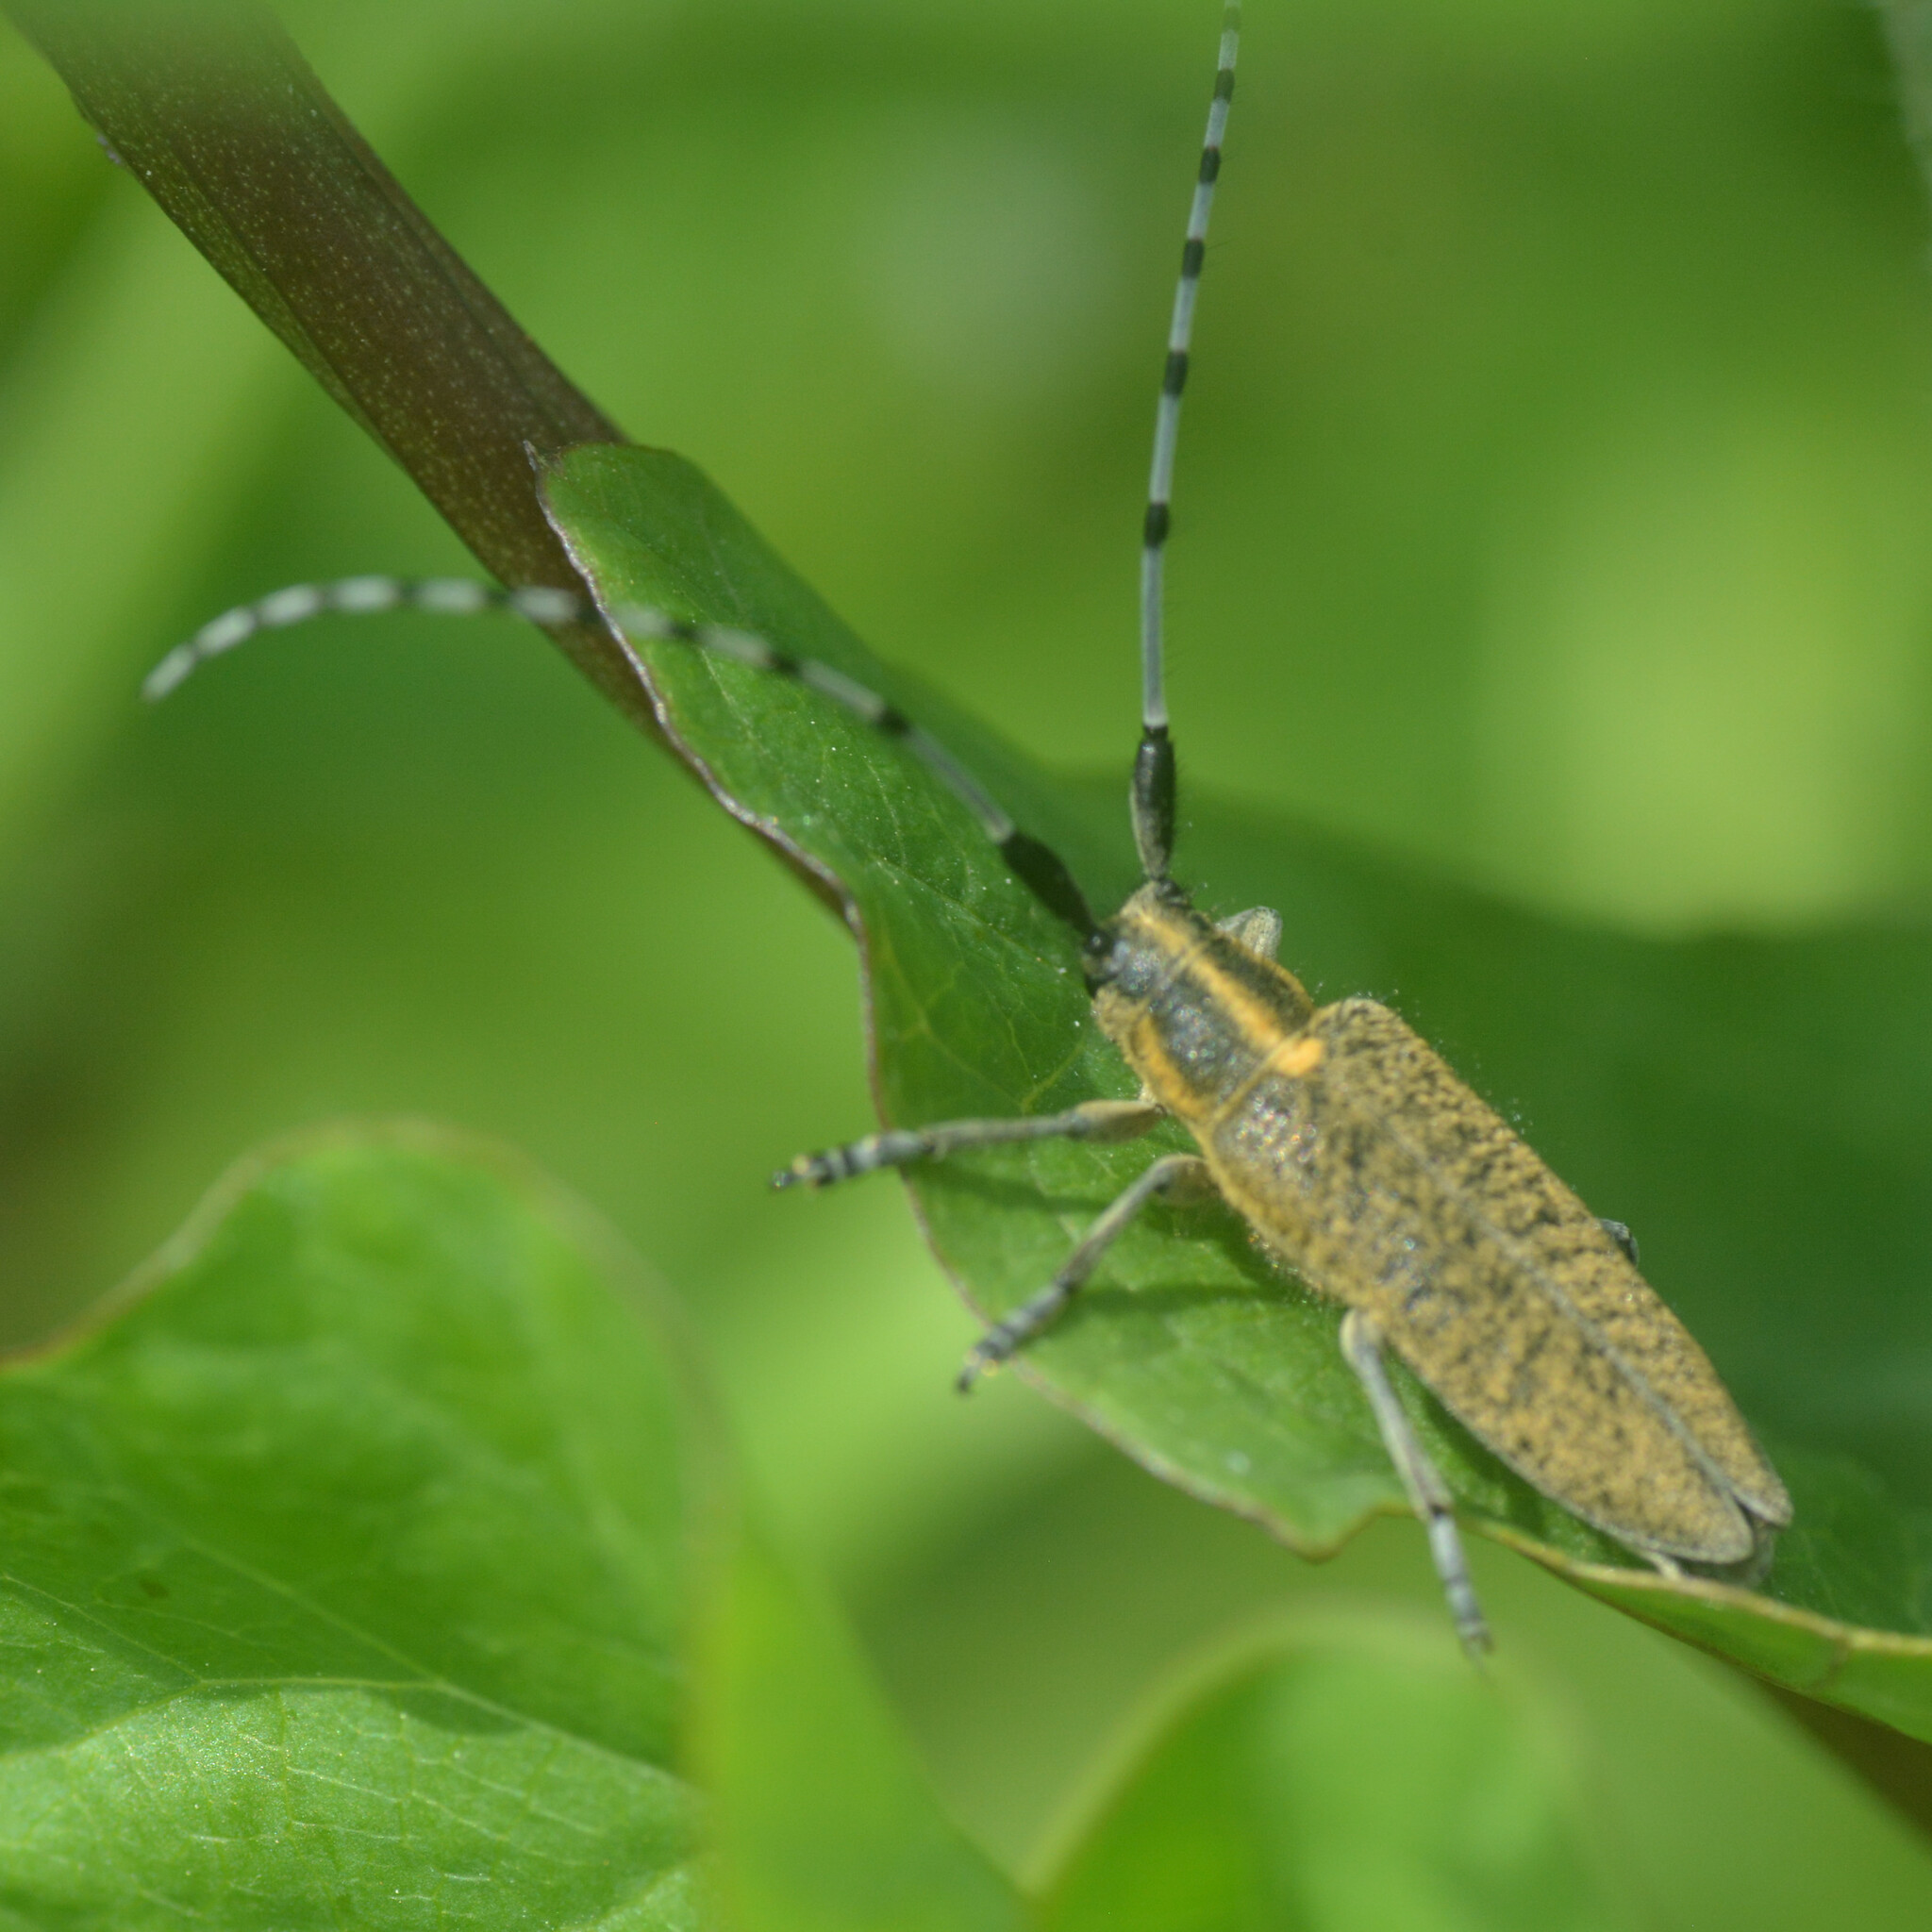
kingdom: Animalia
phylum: Arthropoda
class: Insecta
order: Coleoptera
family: Cerambycidae
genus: Agapanthia
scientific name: Agapanthia villosoviridescens
